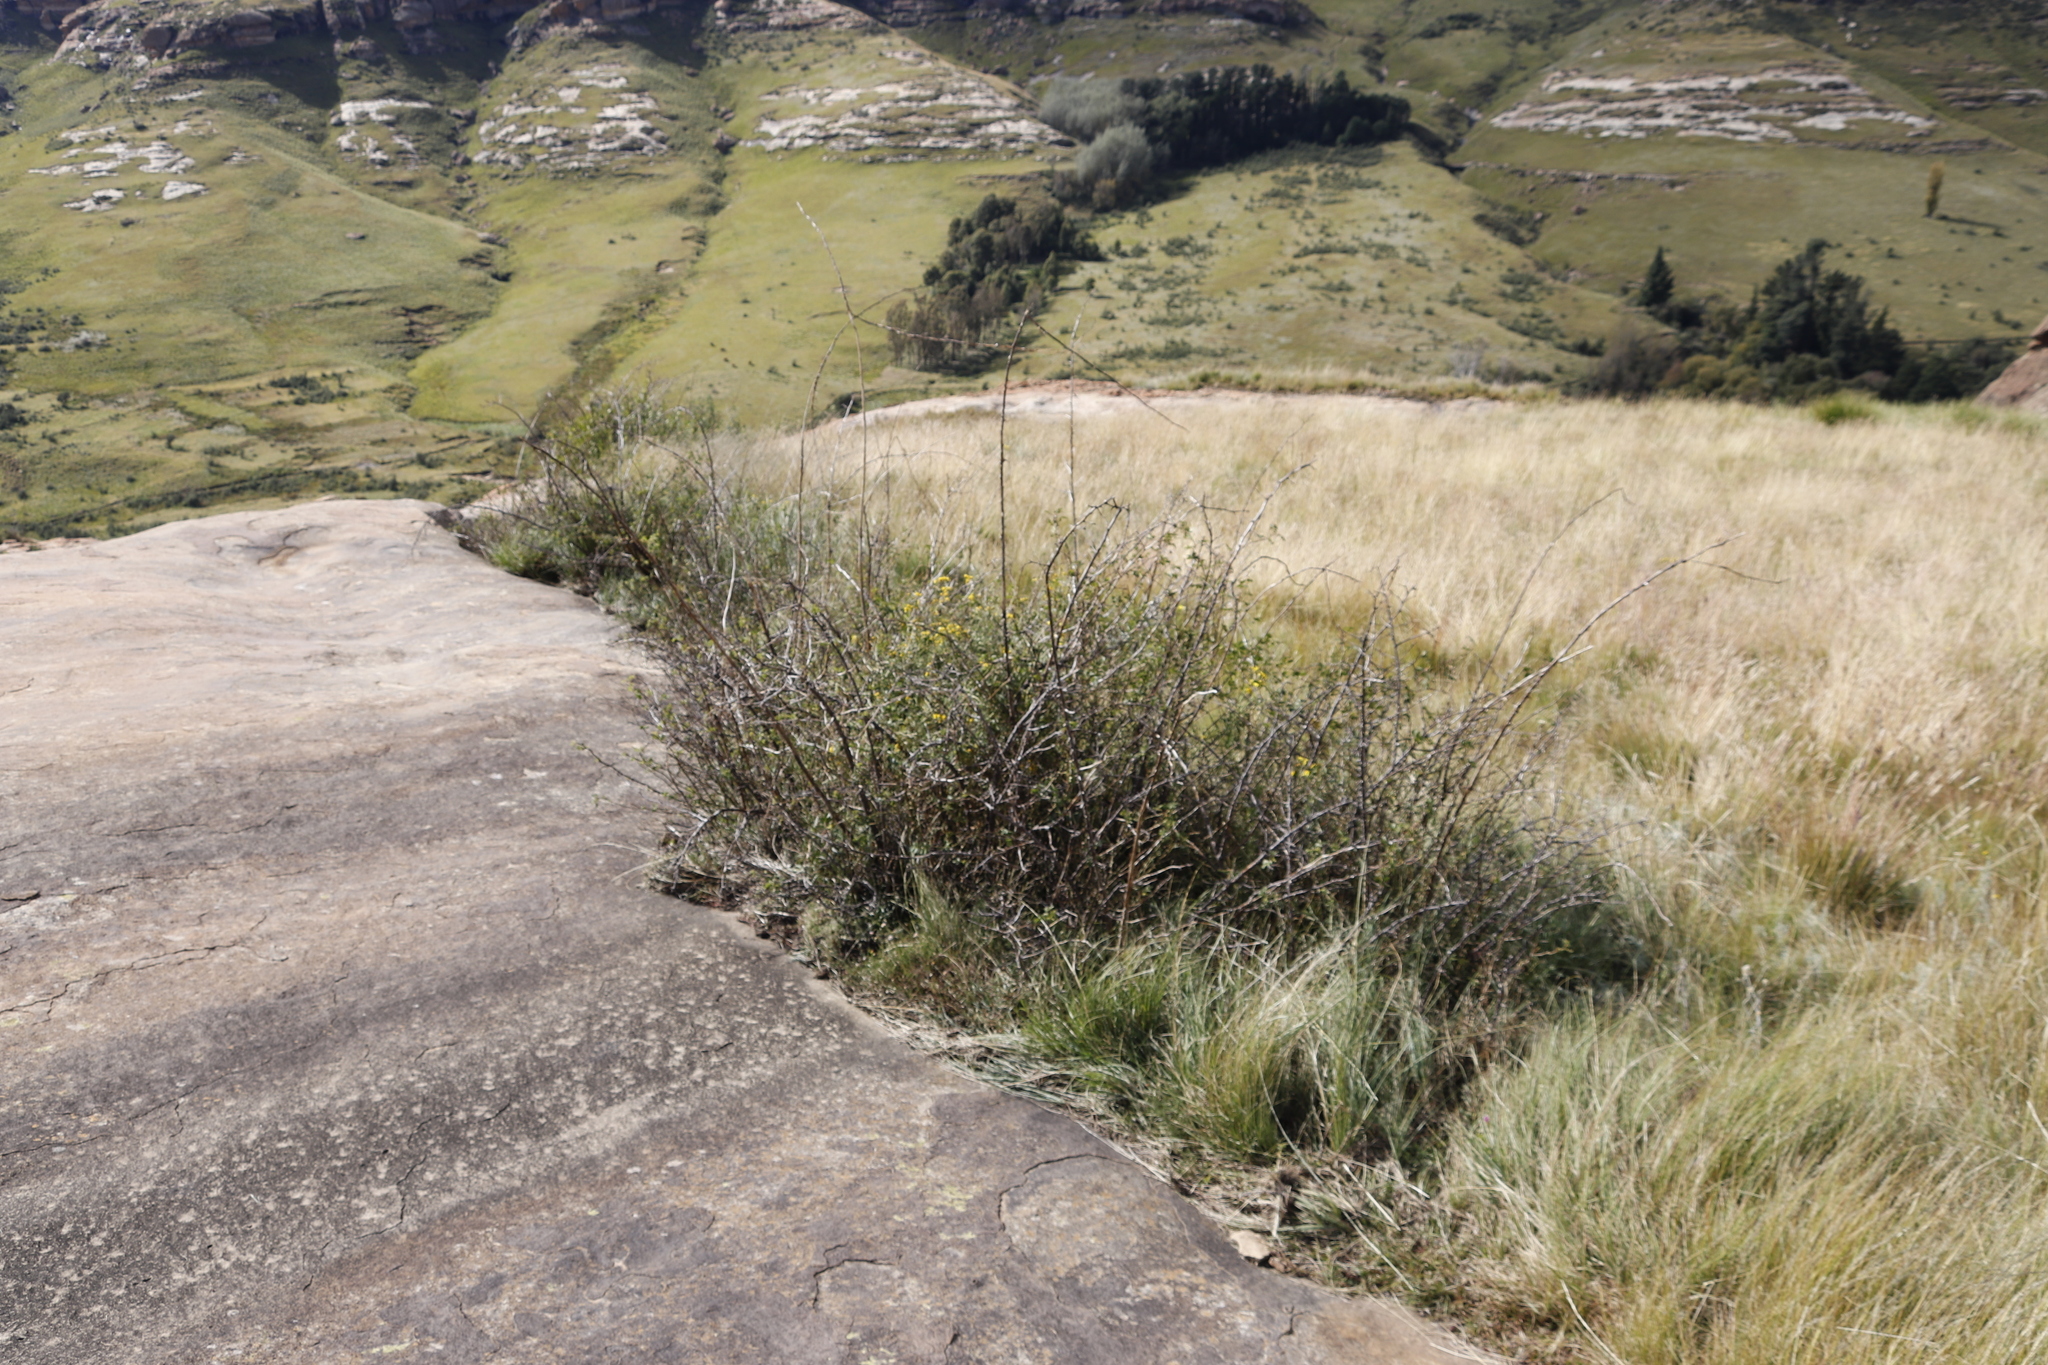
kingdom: Plantae
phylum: Tracheophyta
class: Magnoliopsida
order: Rosales
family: Rosaceae
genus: Rosa
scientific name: Rosa rubiginosa
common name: Sweet-briar
